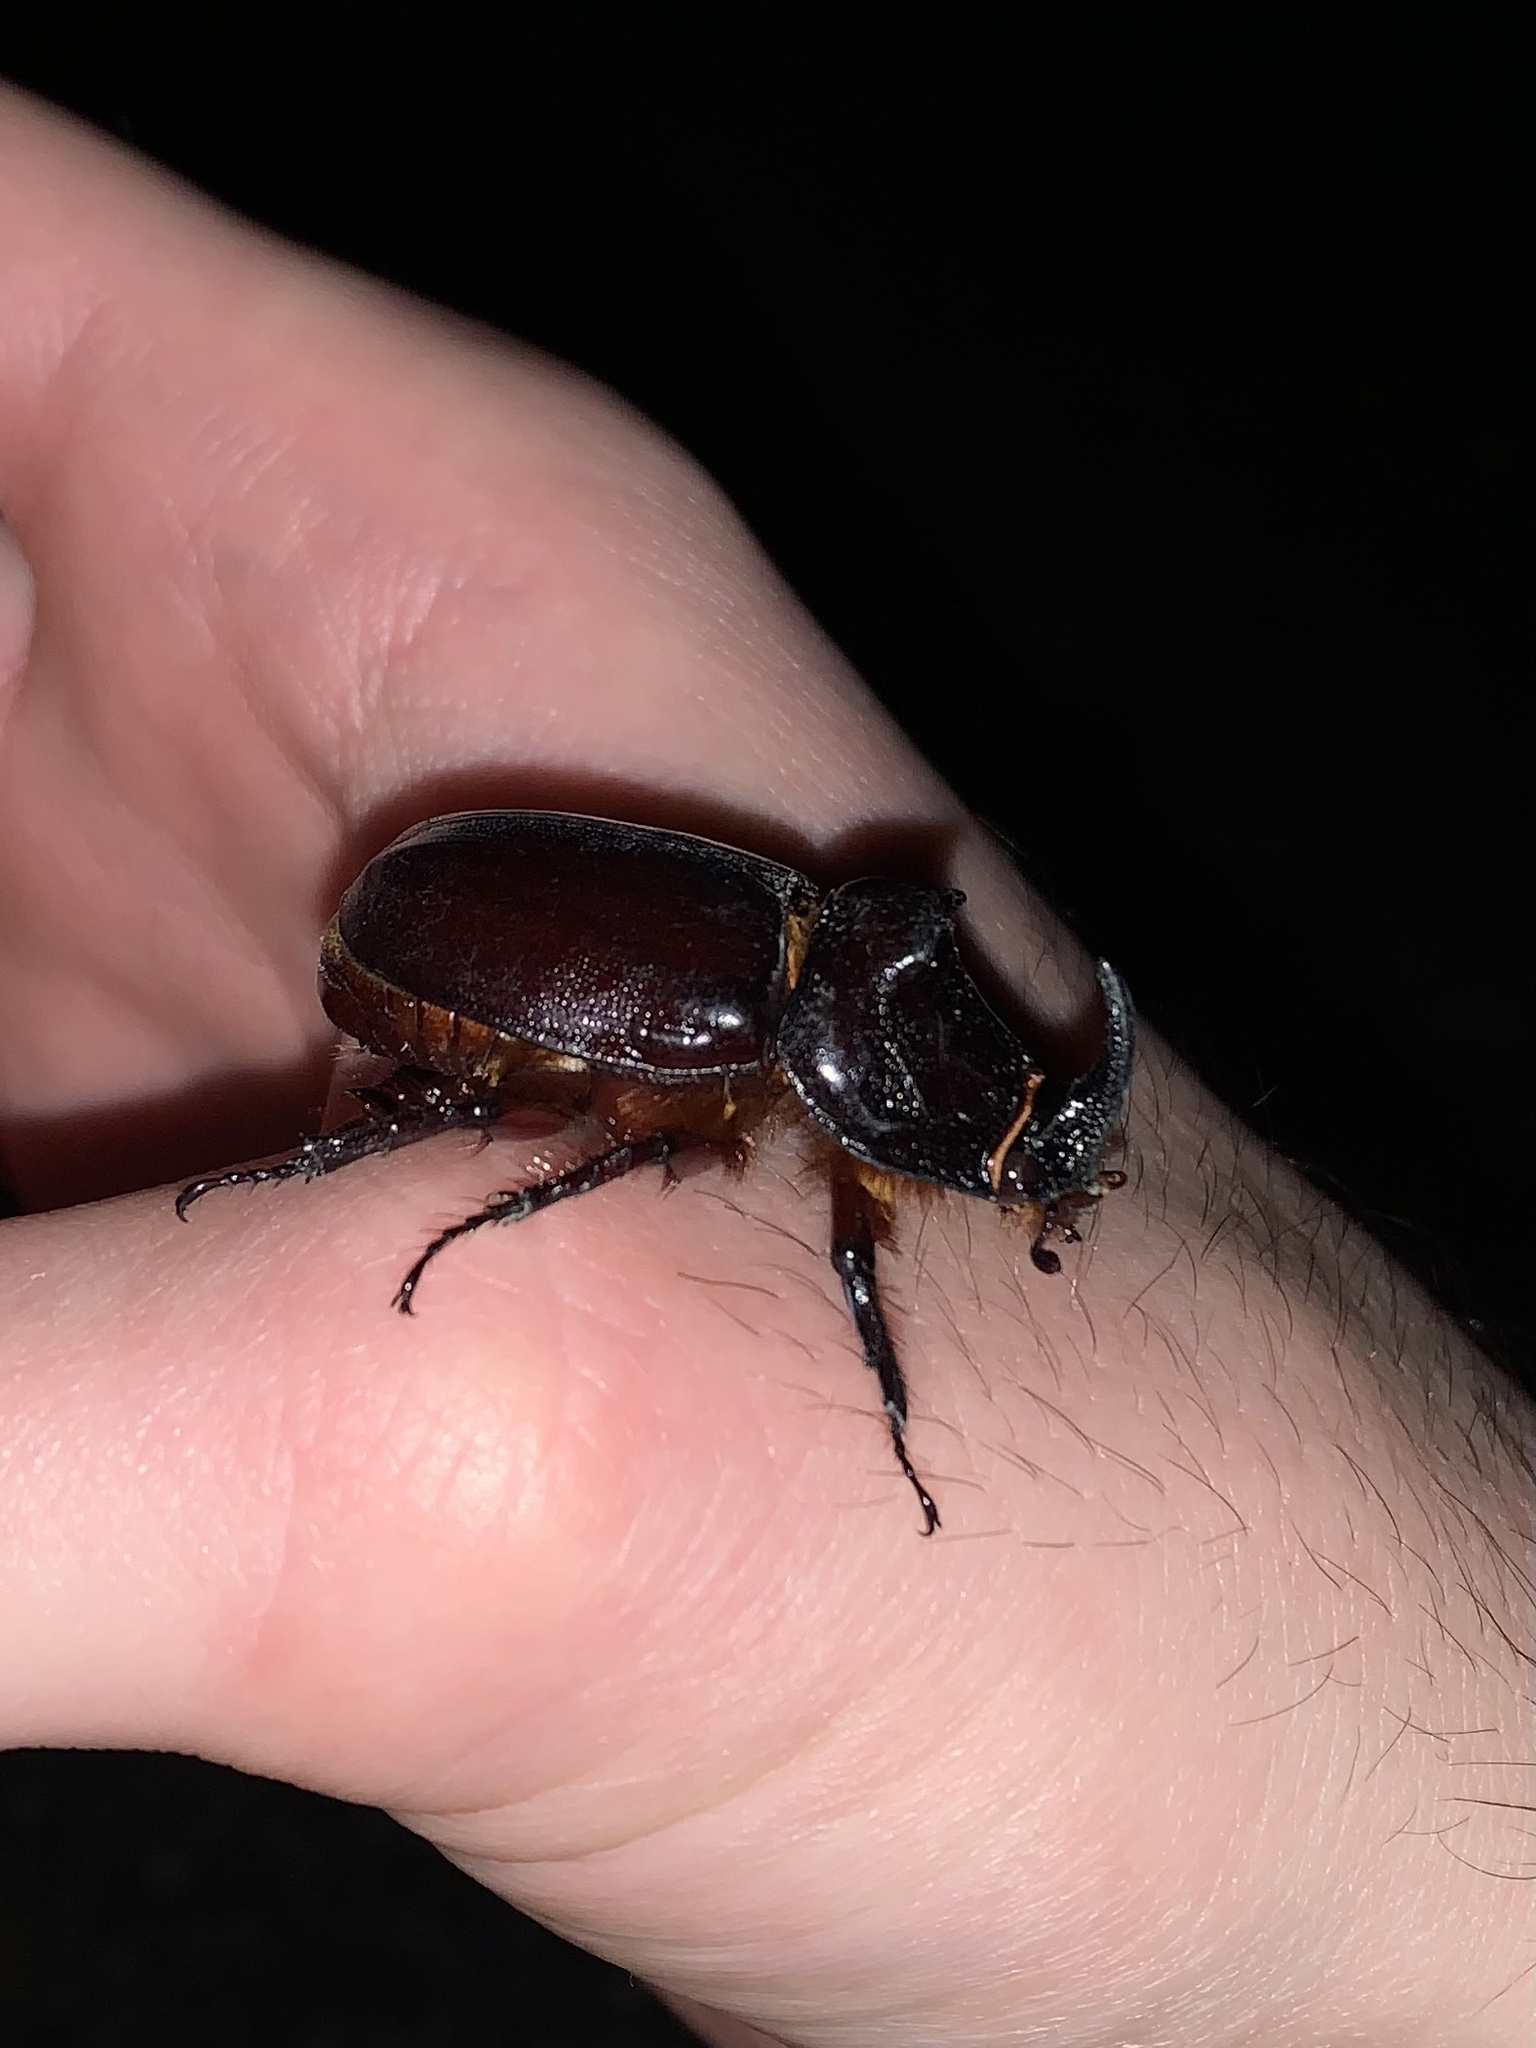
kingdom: Animalia
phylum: Arthropoda
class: Insecta
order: Coleoptera
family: Scarabaeidae
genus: Oryctes
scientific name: Oryctes nasicornis
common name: European rhinoceros beetle
